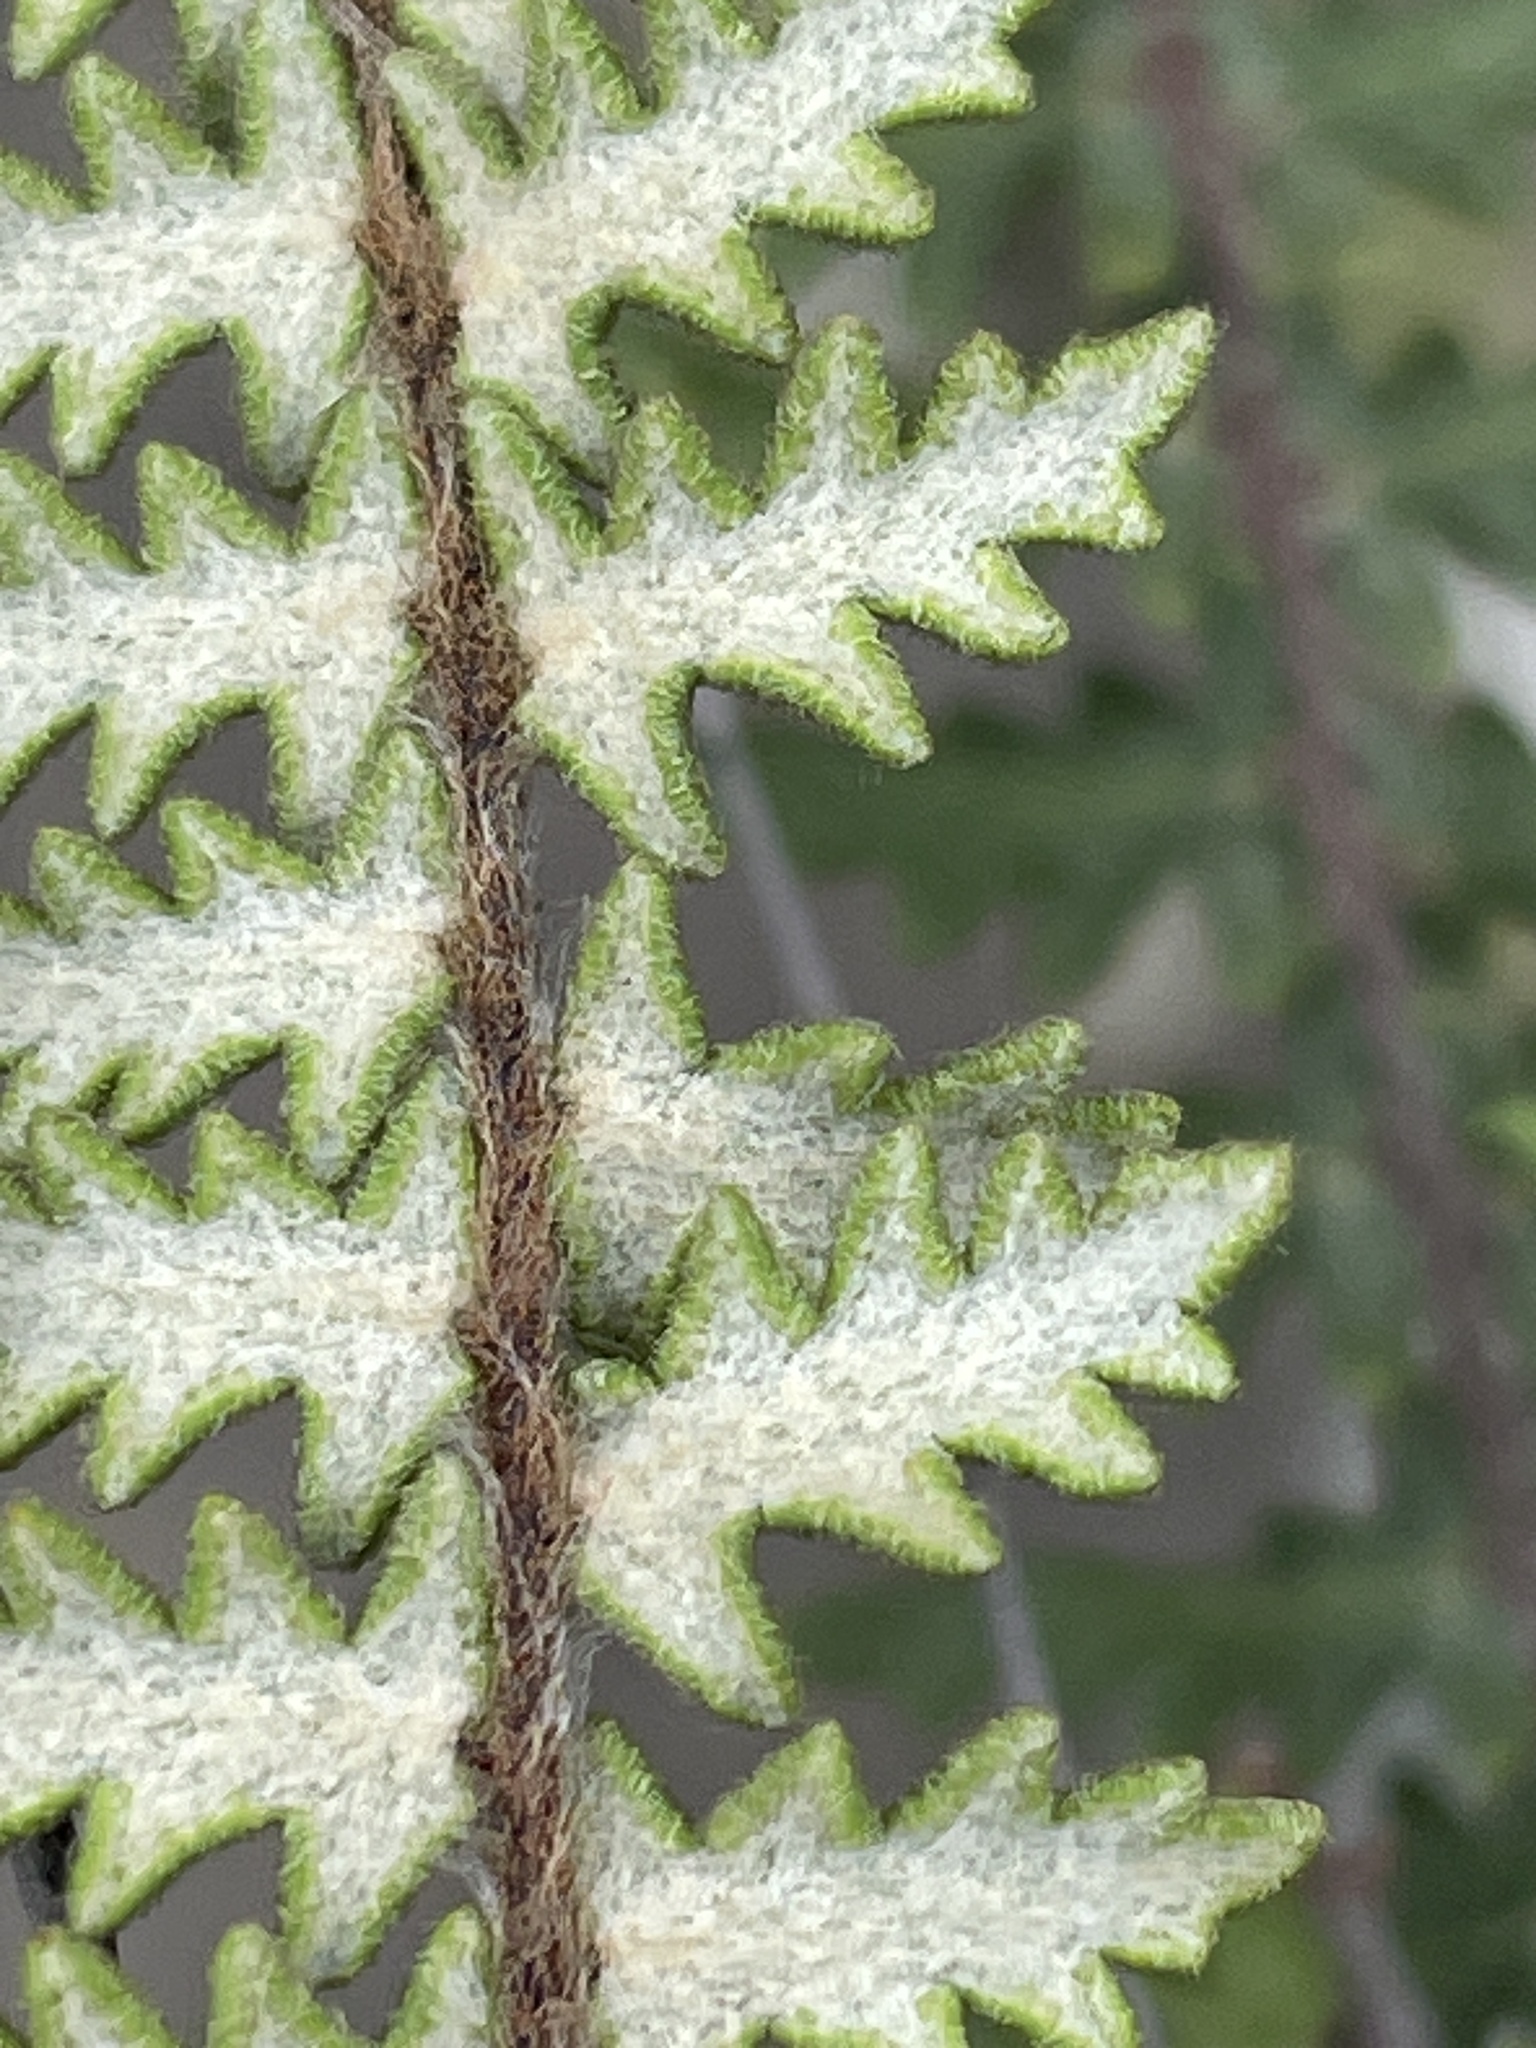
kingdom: Plantae
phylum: Tracheophyta
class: Polypodiopsida
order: Polypodiales
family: Pteridaceae
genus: Myriopteris
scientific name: Myriopteris aurea
